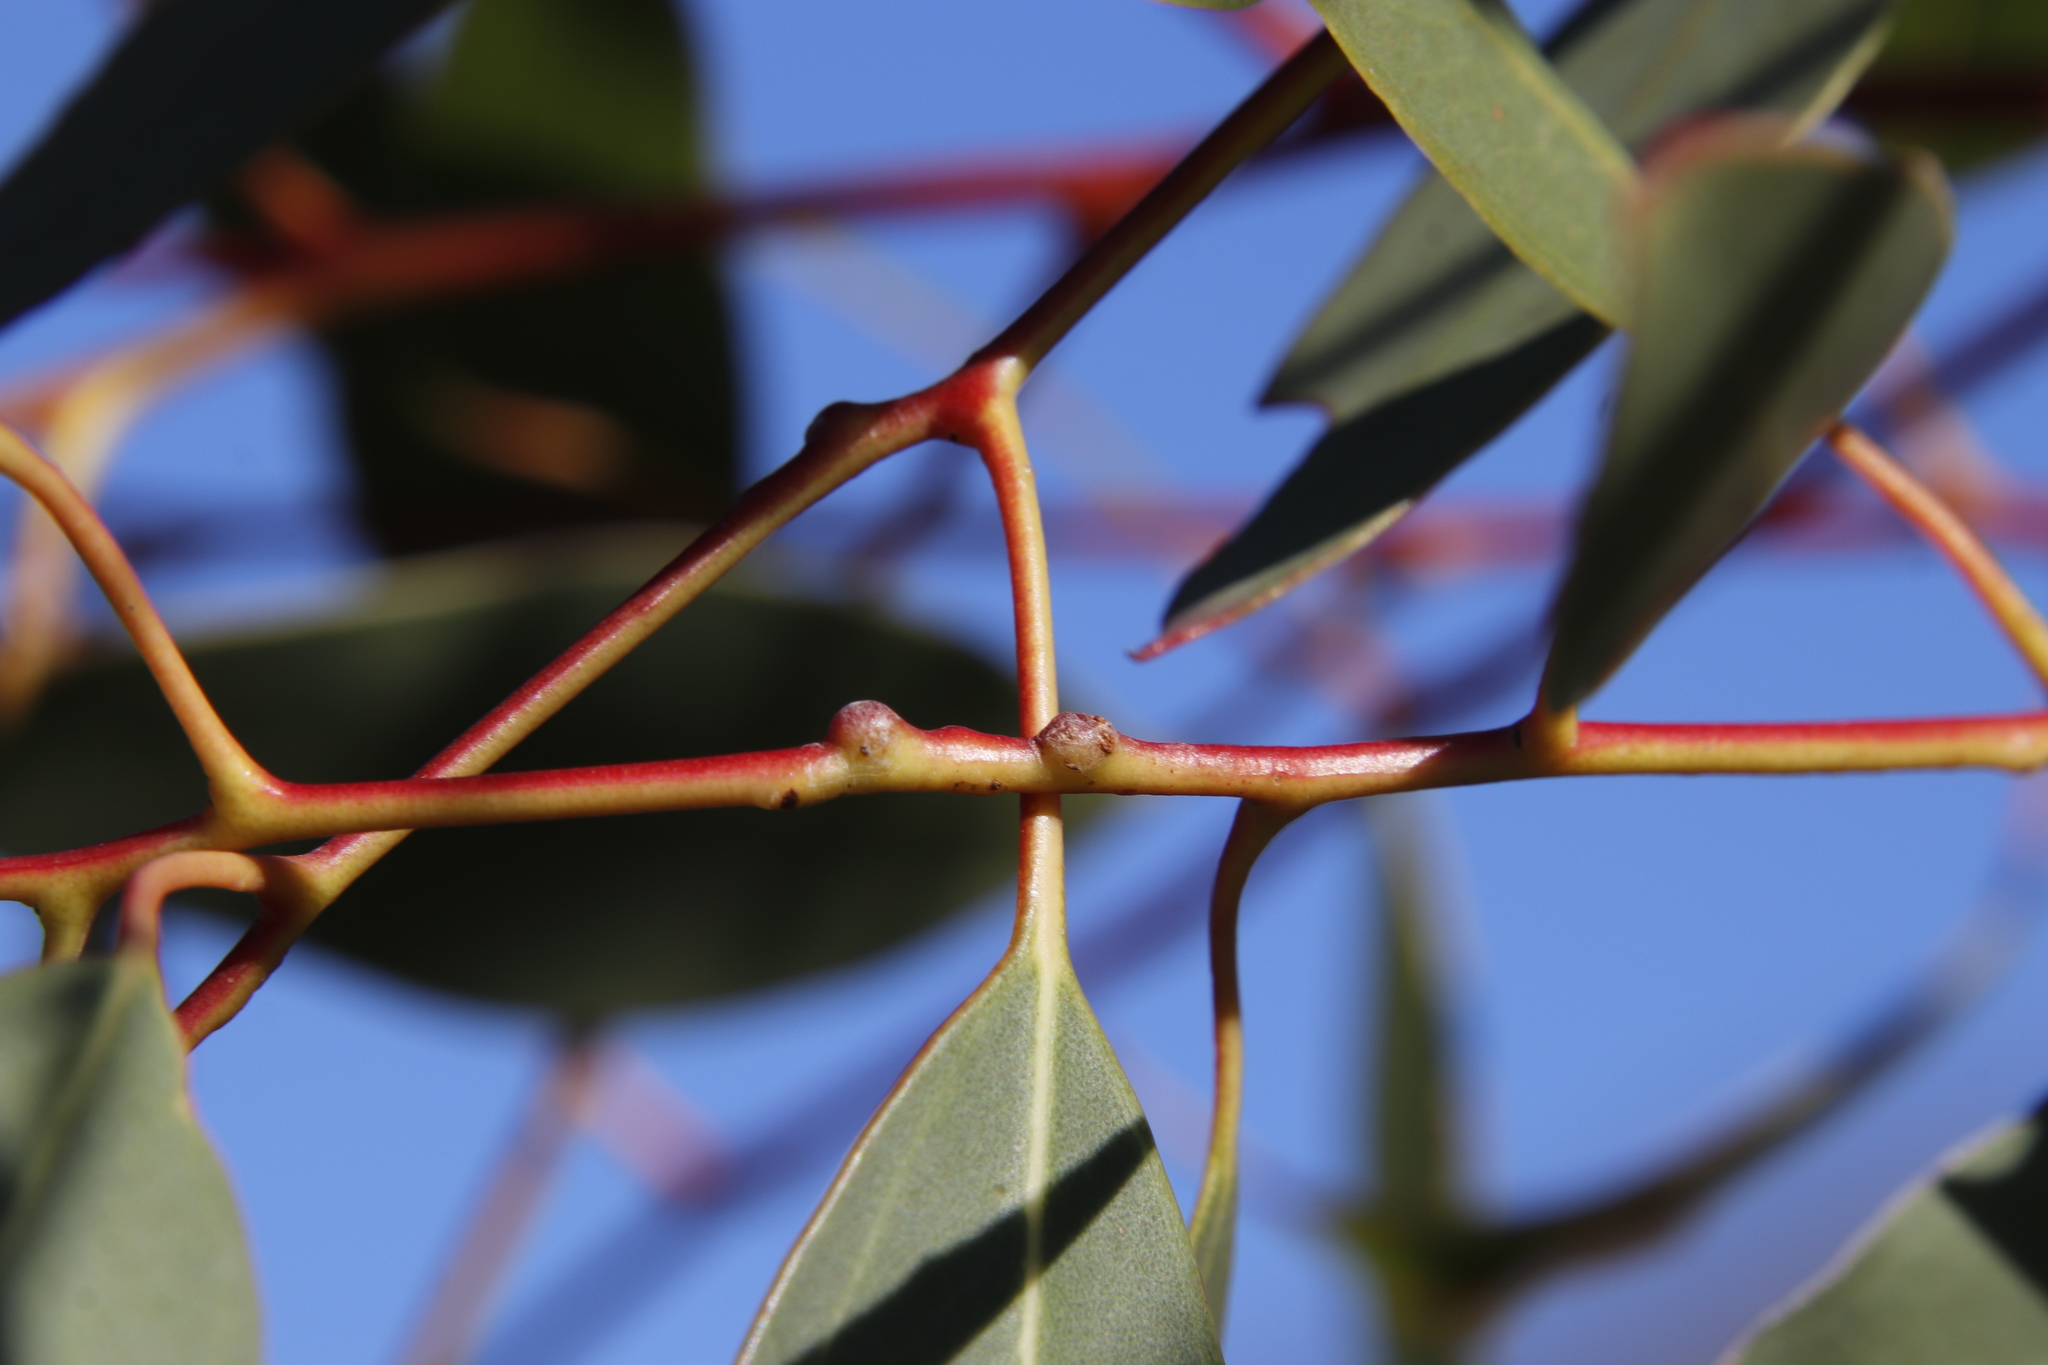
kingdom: Animalia
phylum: Arthropoda
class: Insecta
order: Hymenoptera
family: Eulophidae
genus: Leptocybe
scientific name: Leptocybe invasa
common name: Gall wasp
